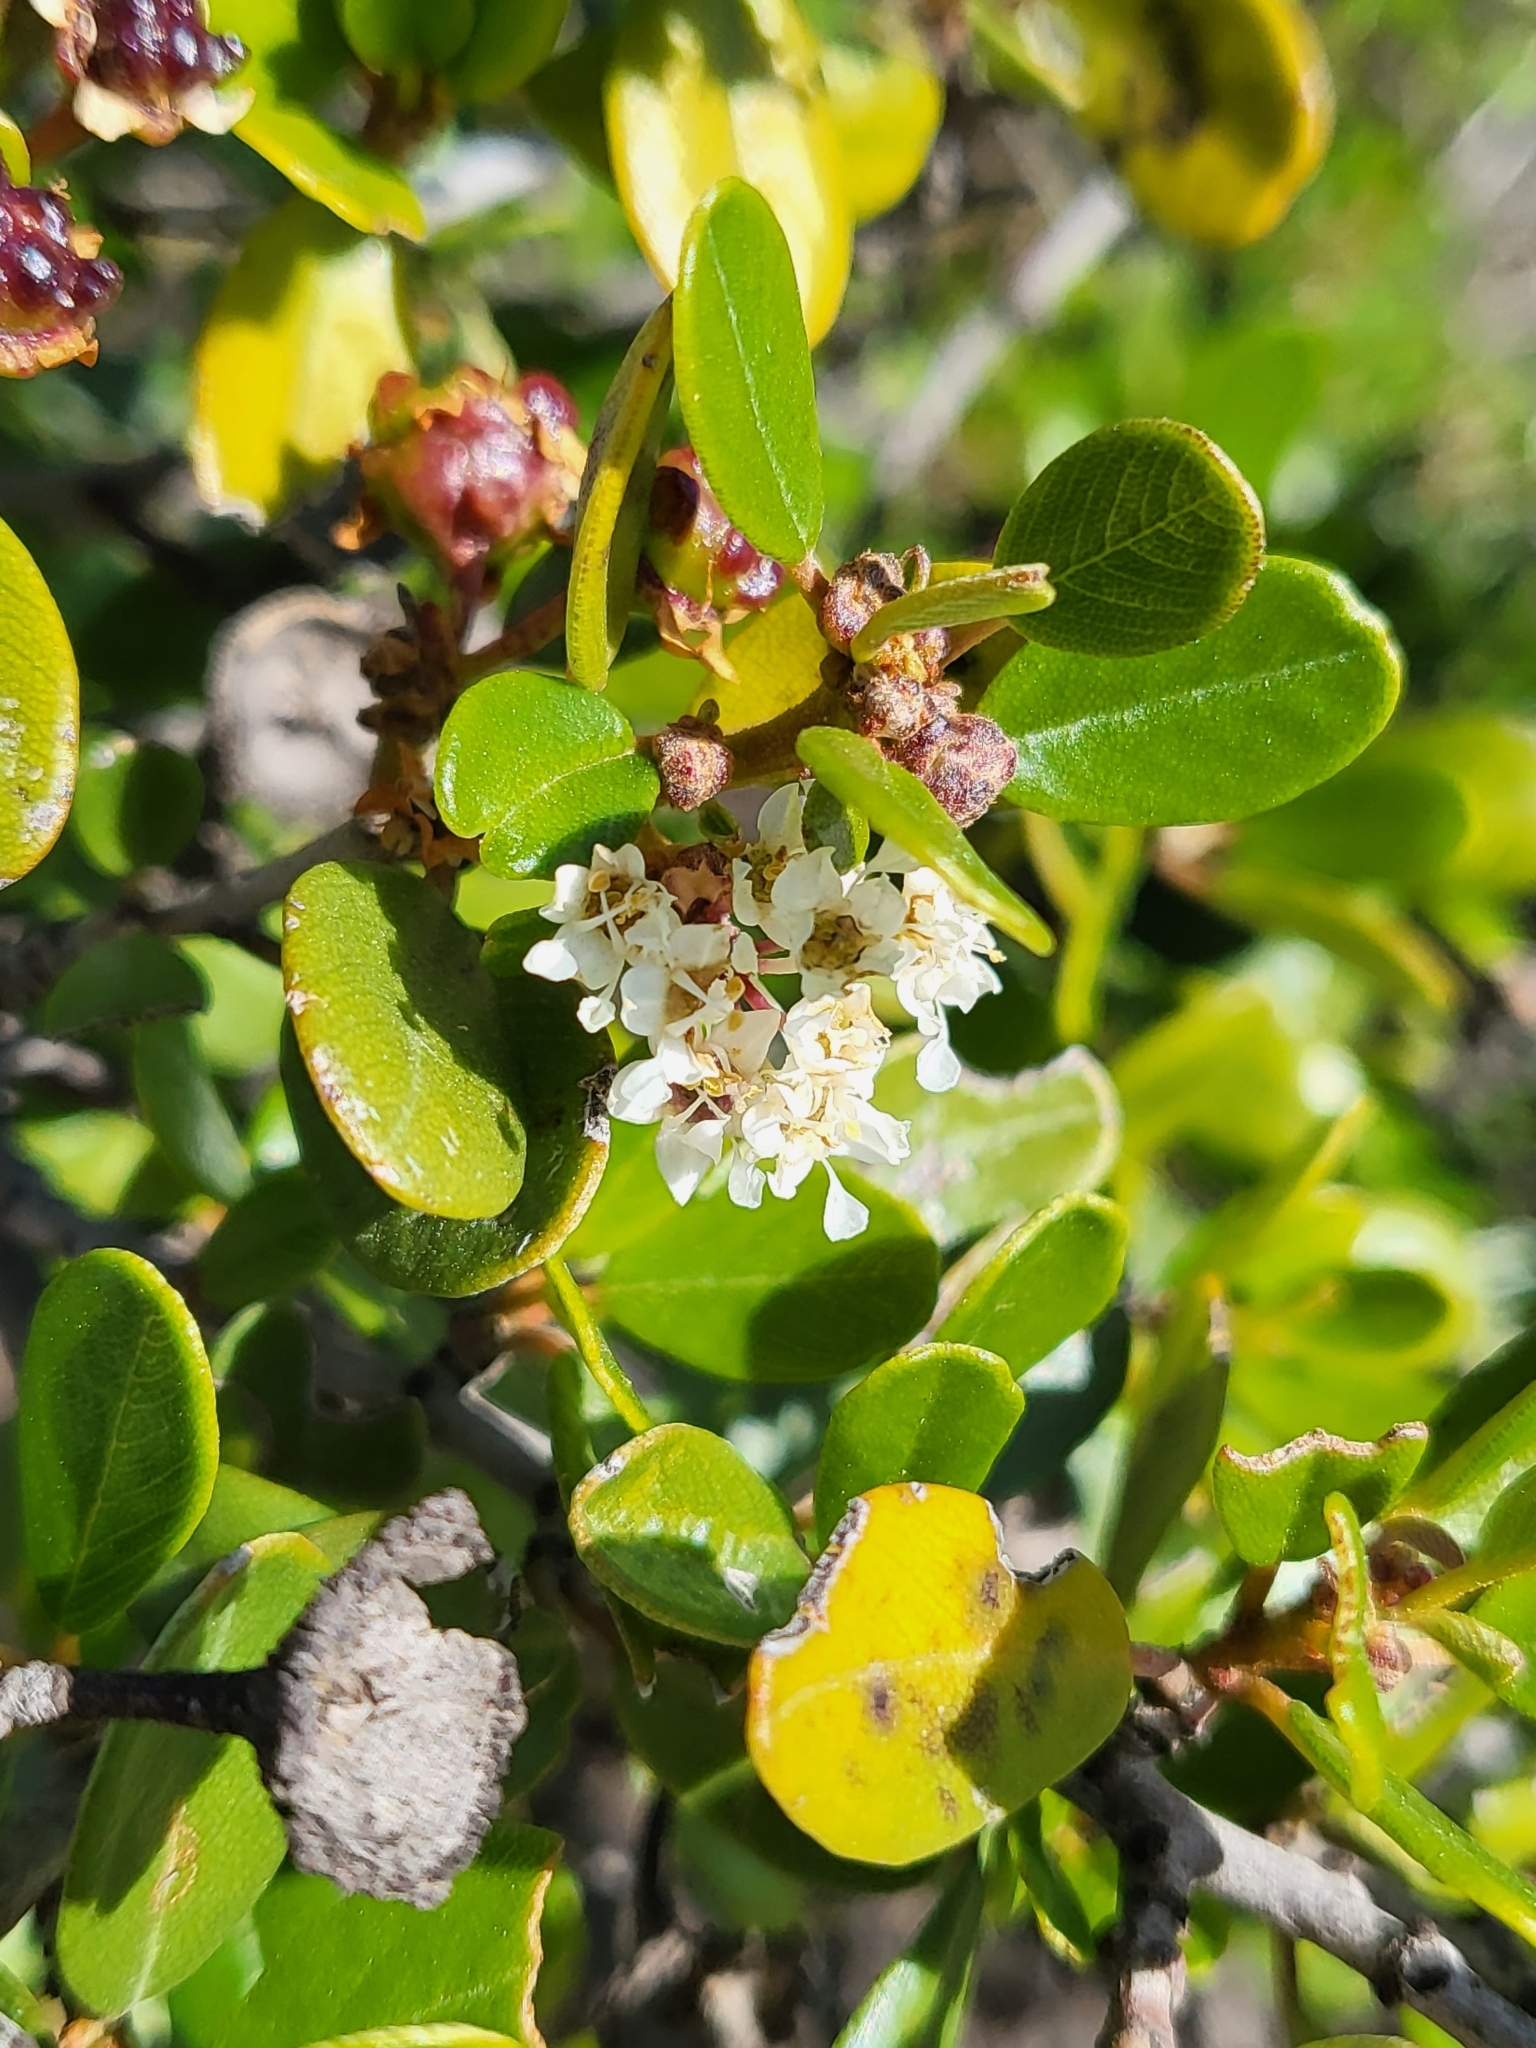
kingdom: Plantae
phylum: Tracheophyta
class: Magnoliopsida
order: Rosales
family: Rhamnaceae
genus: Ceanothus
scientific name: Ceanothus megacarpus
